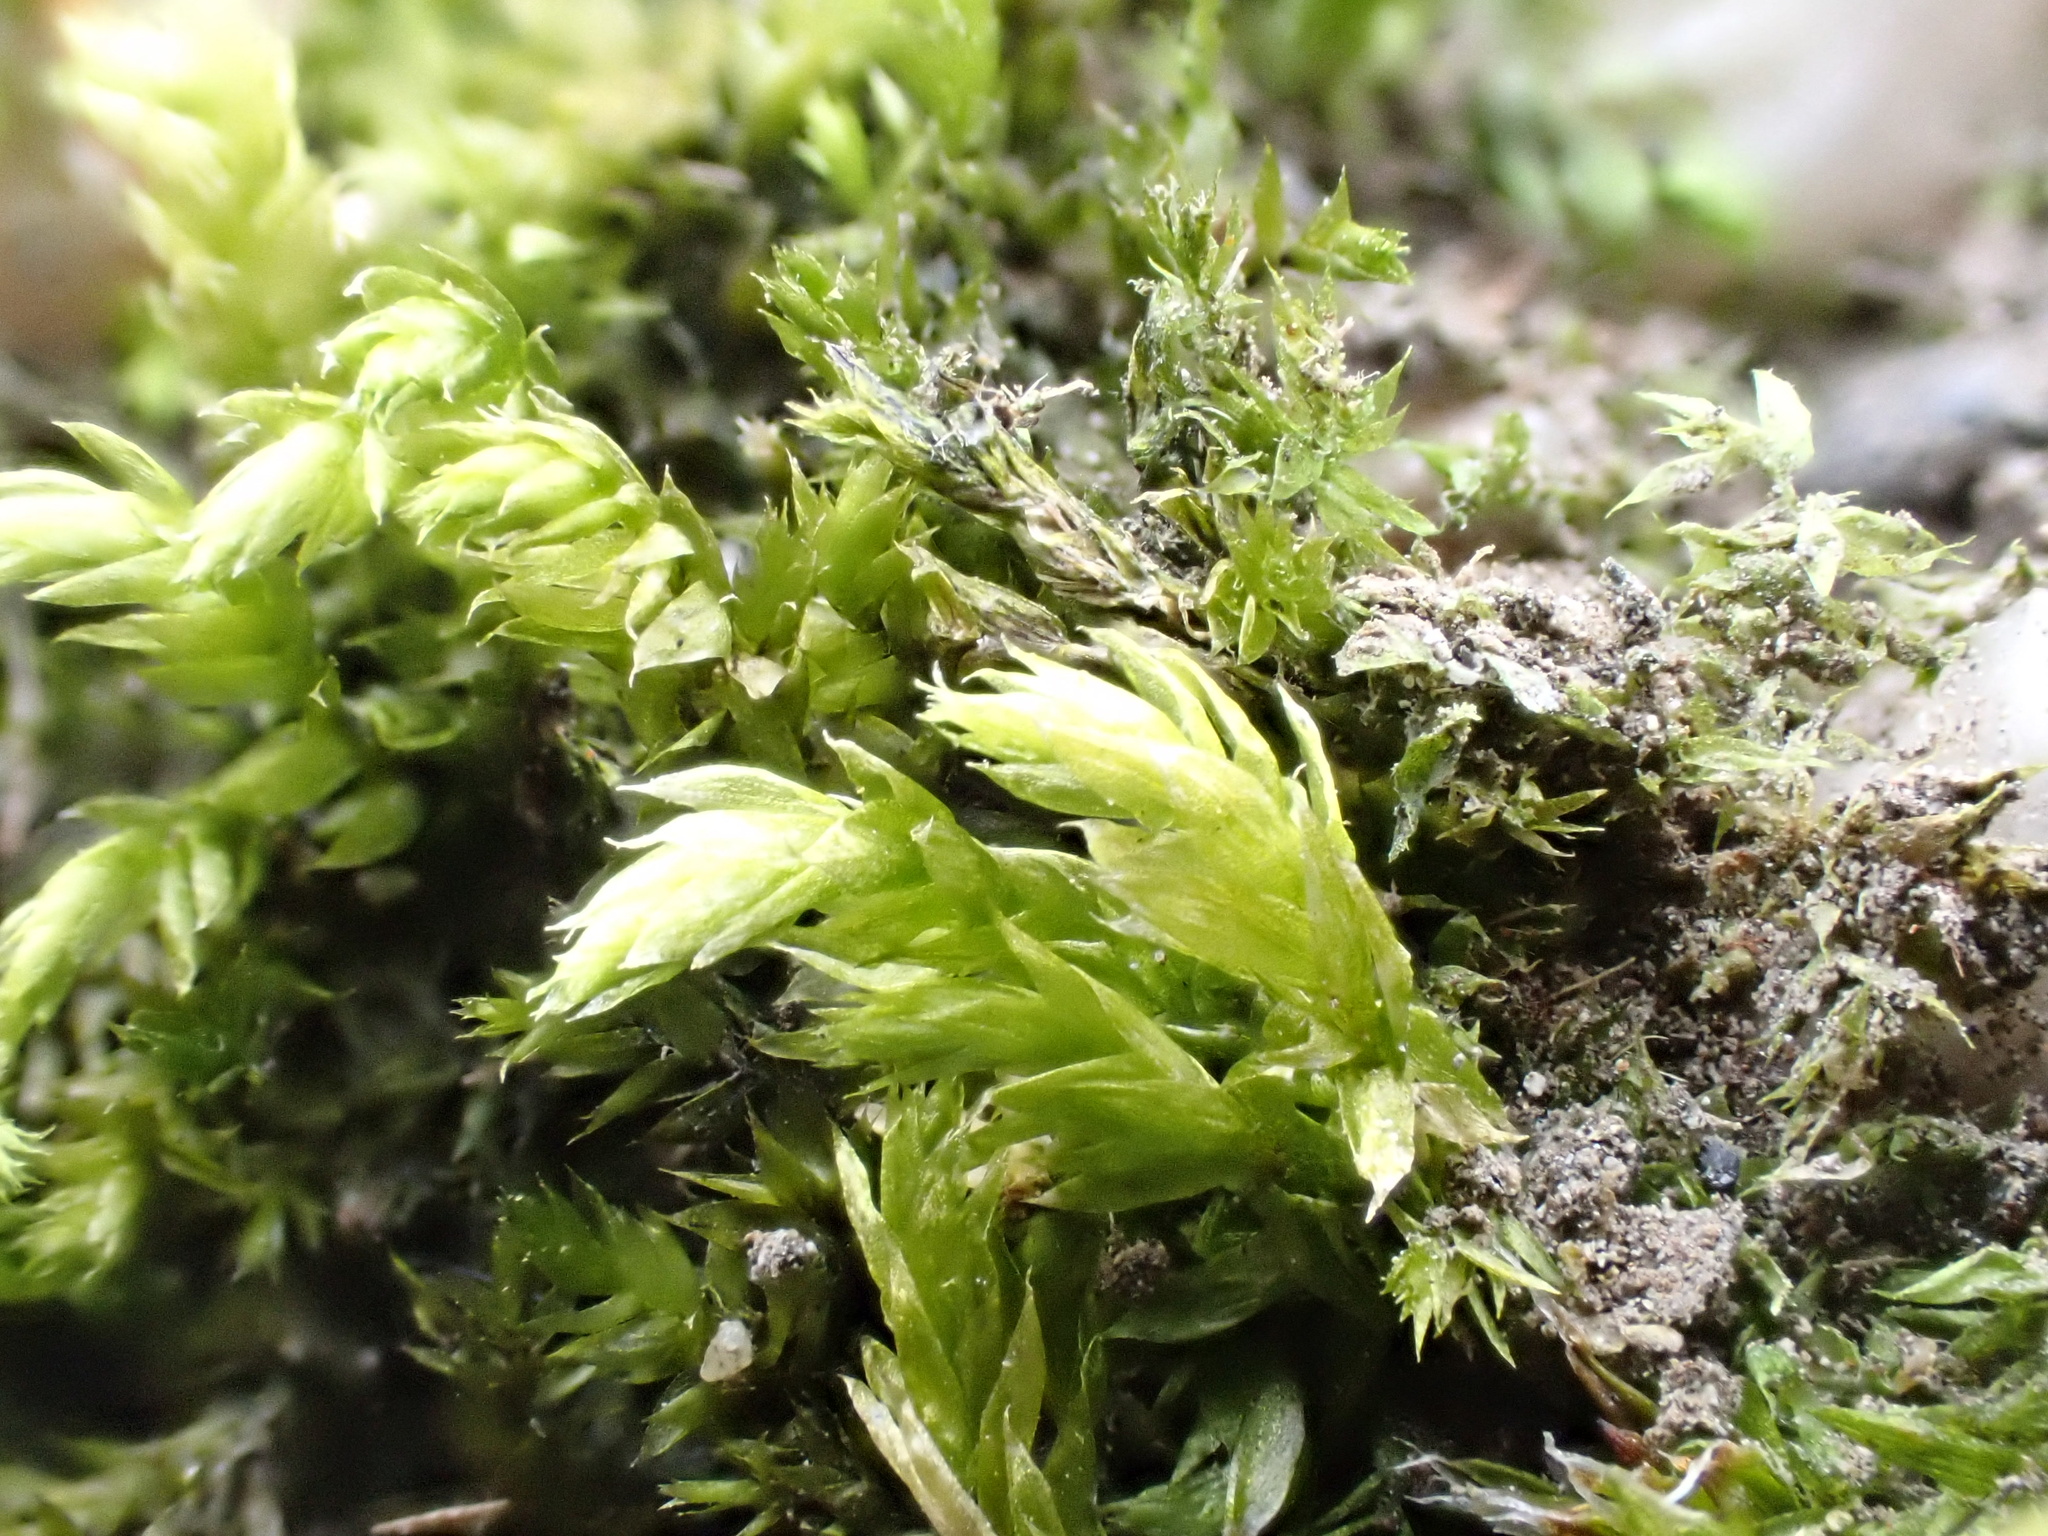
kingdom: Plantae
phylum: Bryophyta
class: Bryopsida
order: Hypnales
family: Brachytheciaceae
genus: Brachythecium
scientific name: Brachythecium rutabulum
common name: Rough-stalked feather-moss
